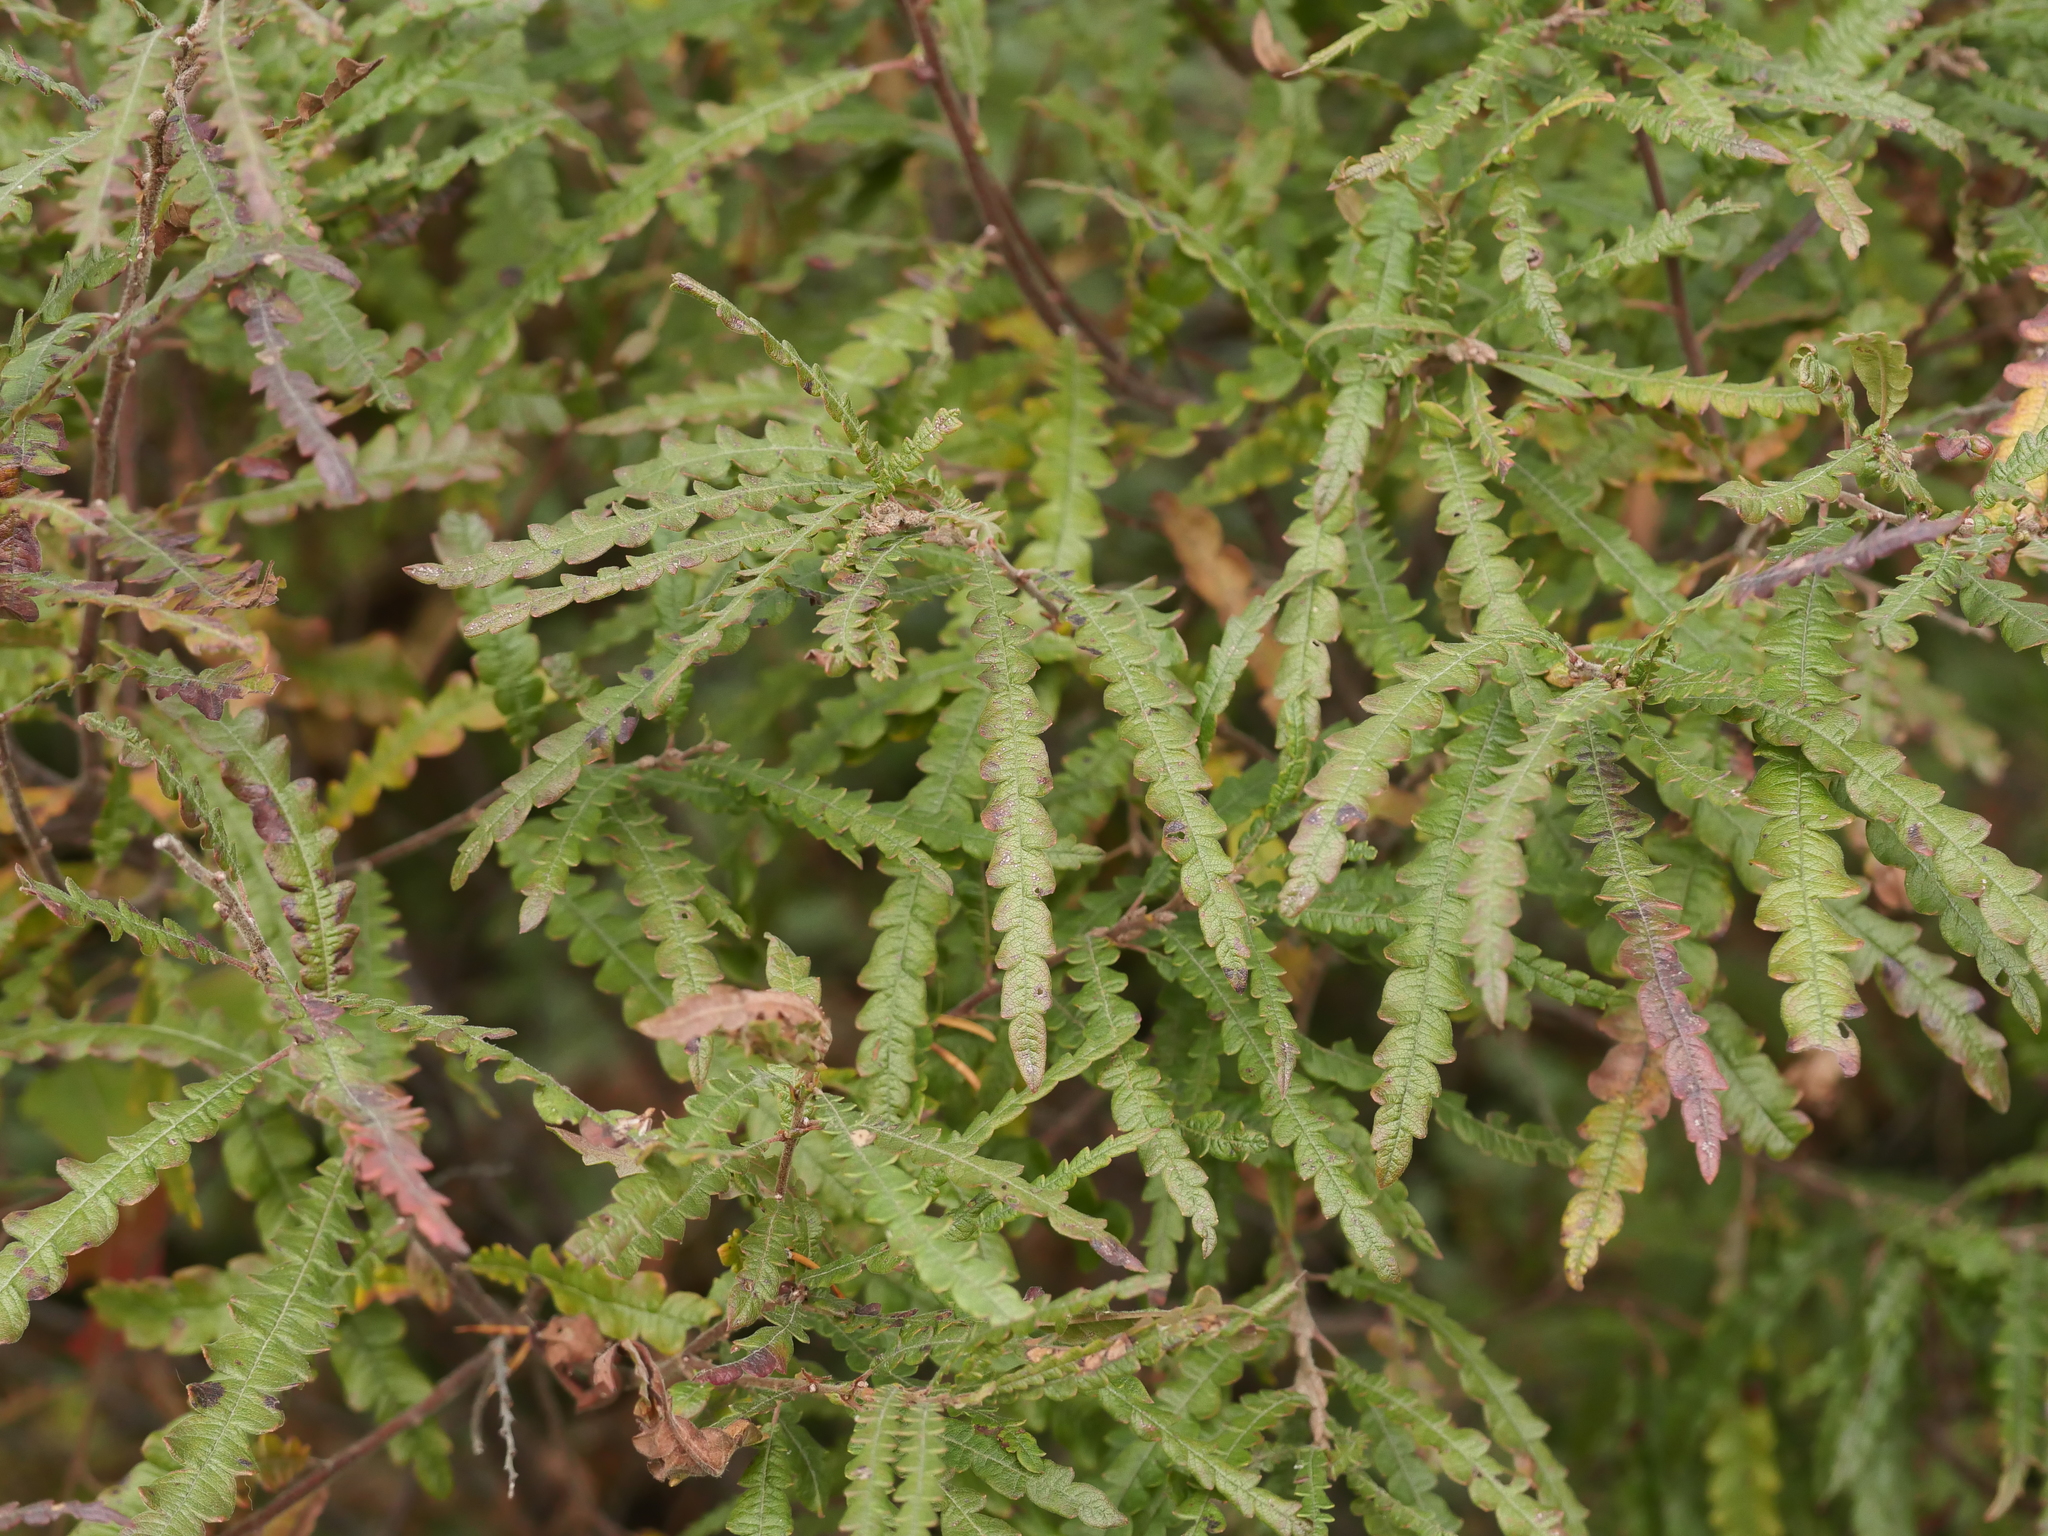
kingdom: Plantae
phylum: Tracheophyta
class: Magnoliopsida
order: Fagales
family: Myricaceae
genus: Comptonia
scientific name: Comptonia peregrina
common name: Sweet-fern
